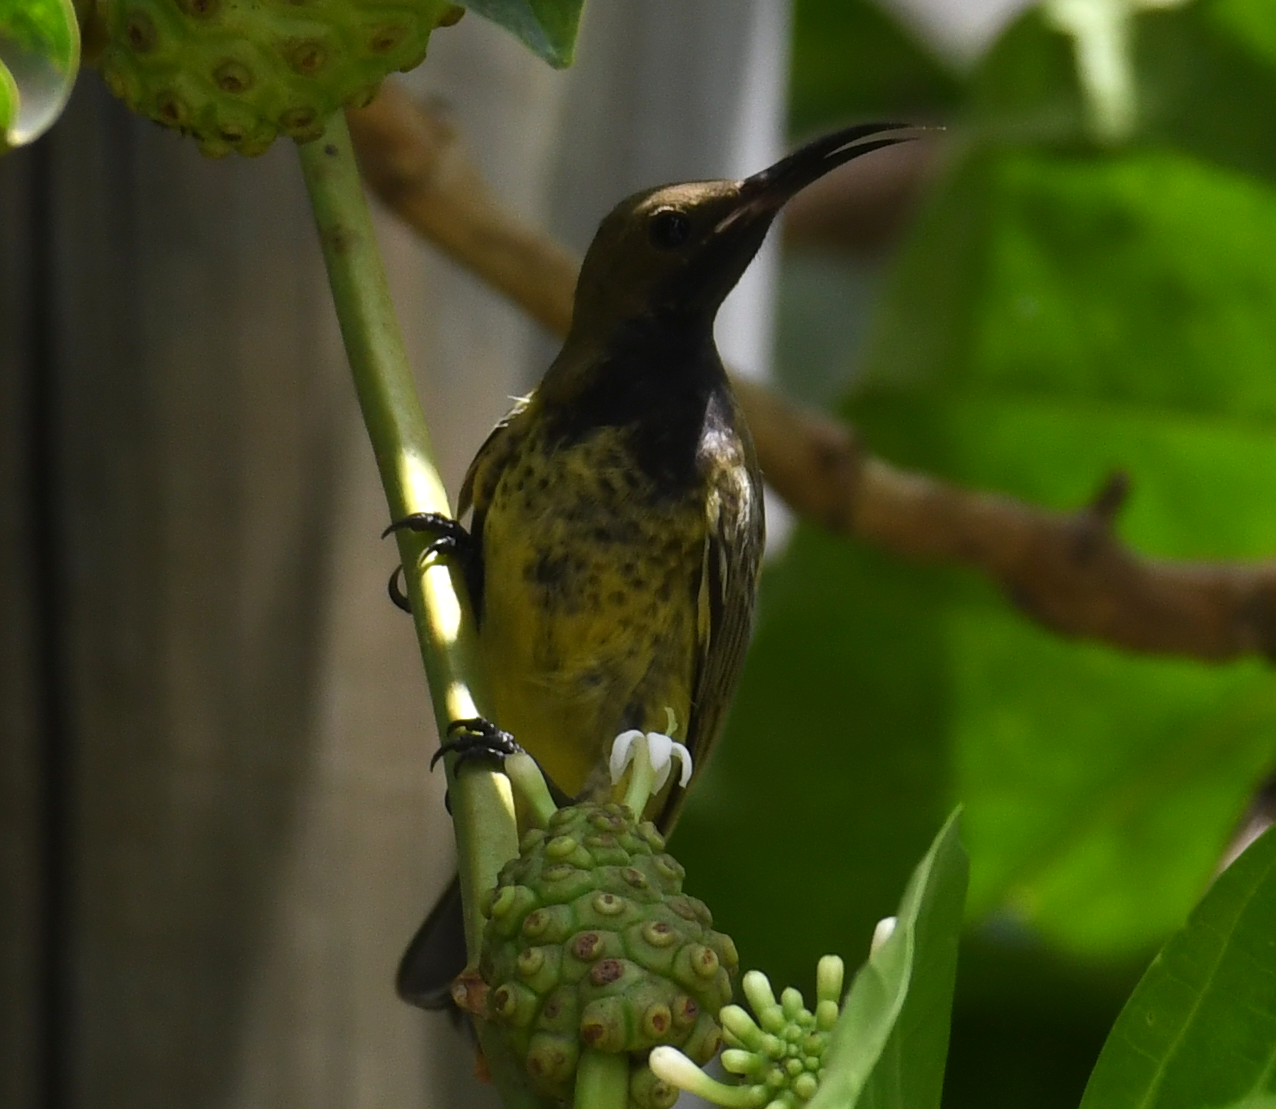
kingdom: Animalia
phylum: Chordata
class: Aves
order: Passeriformes
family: Nectariniidae
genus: Cinnyris
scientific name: Cinnyris coccinigastrus
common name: Splendid sunbird
